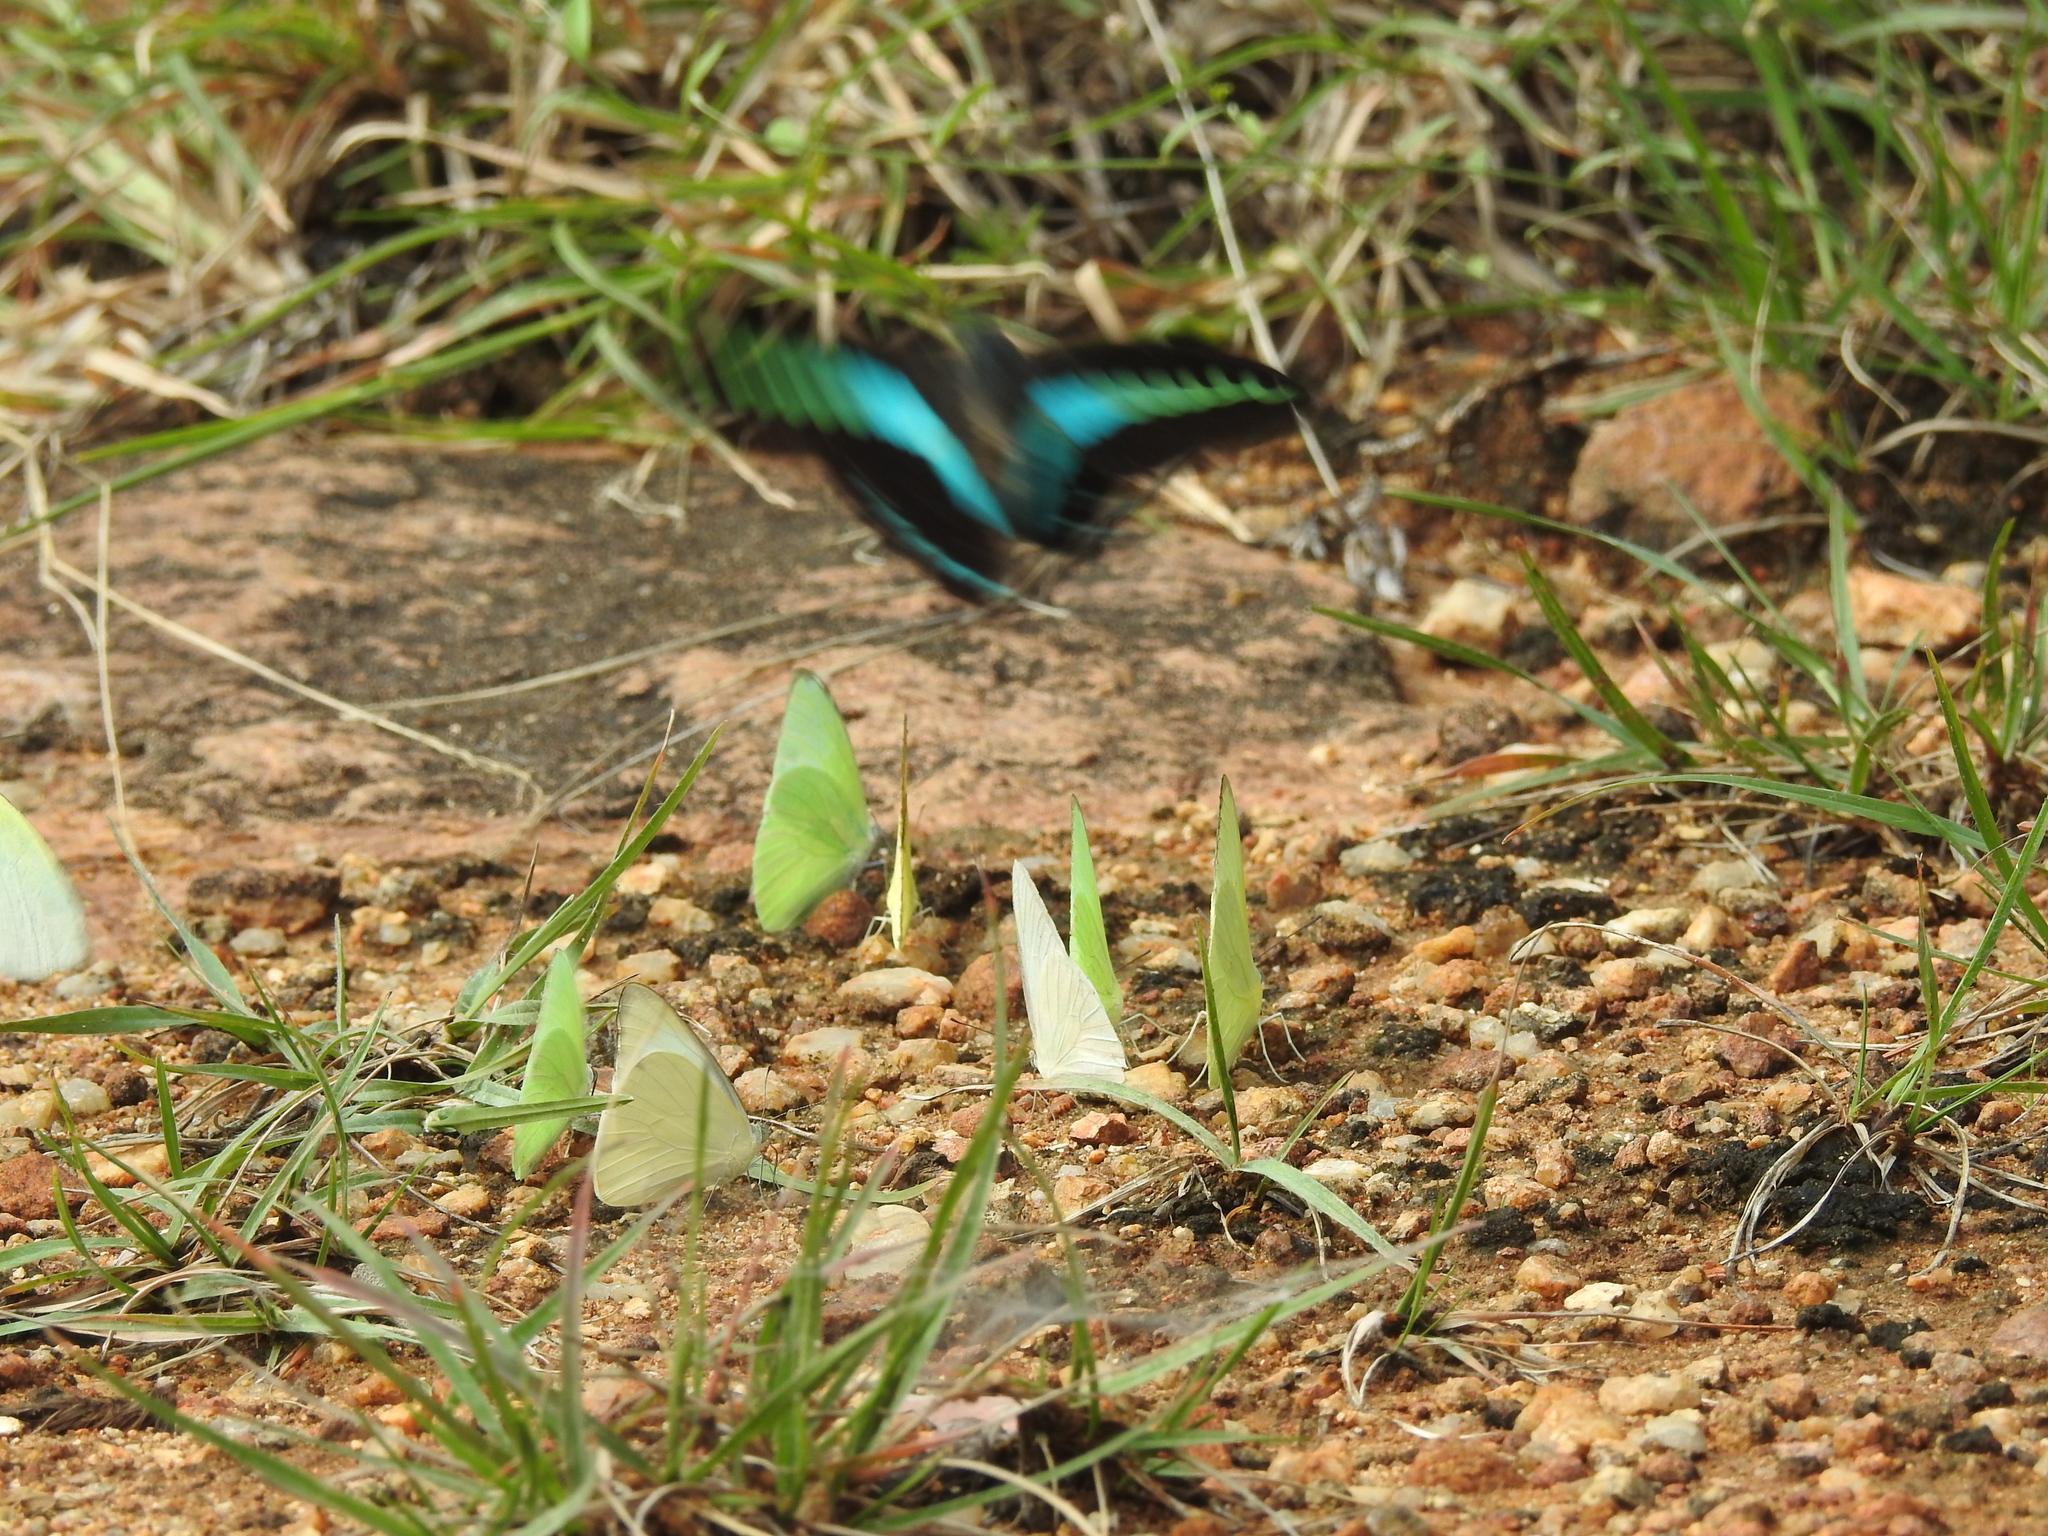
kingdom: Animalia
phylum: Arthropoda
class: Insecta
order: Lepidoptera
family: Papilionidae
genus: Graphium
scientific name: Graphium
